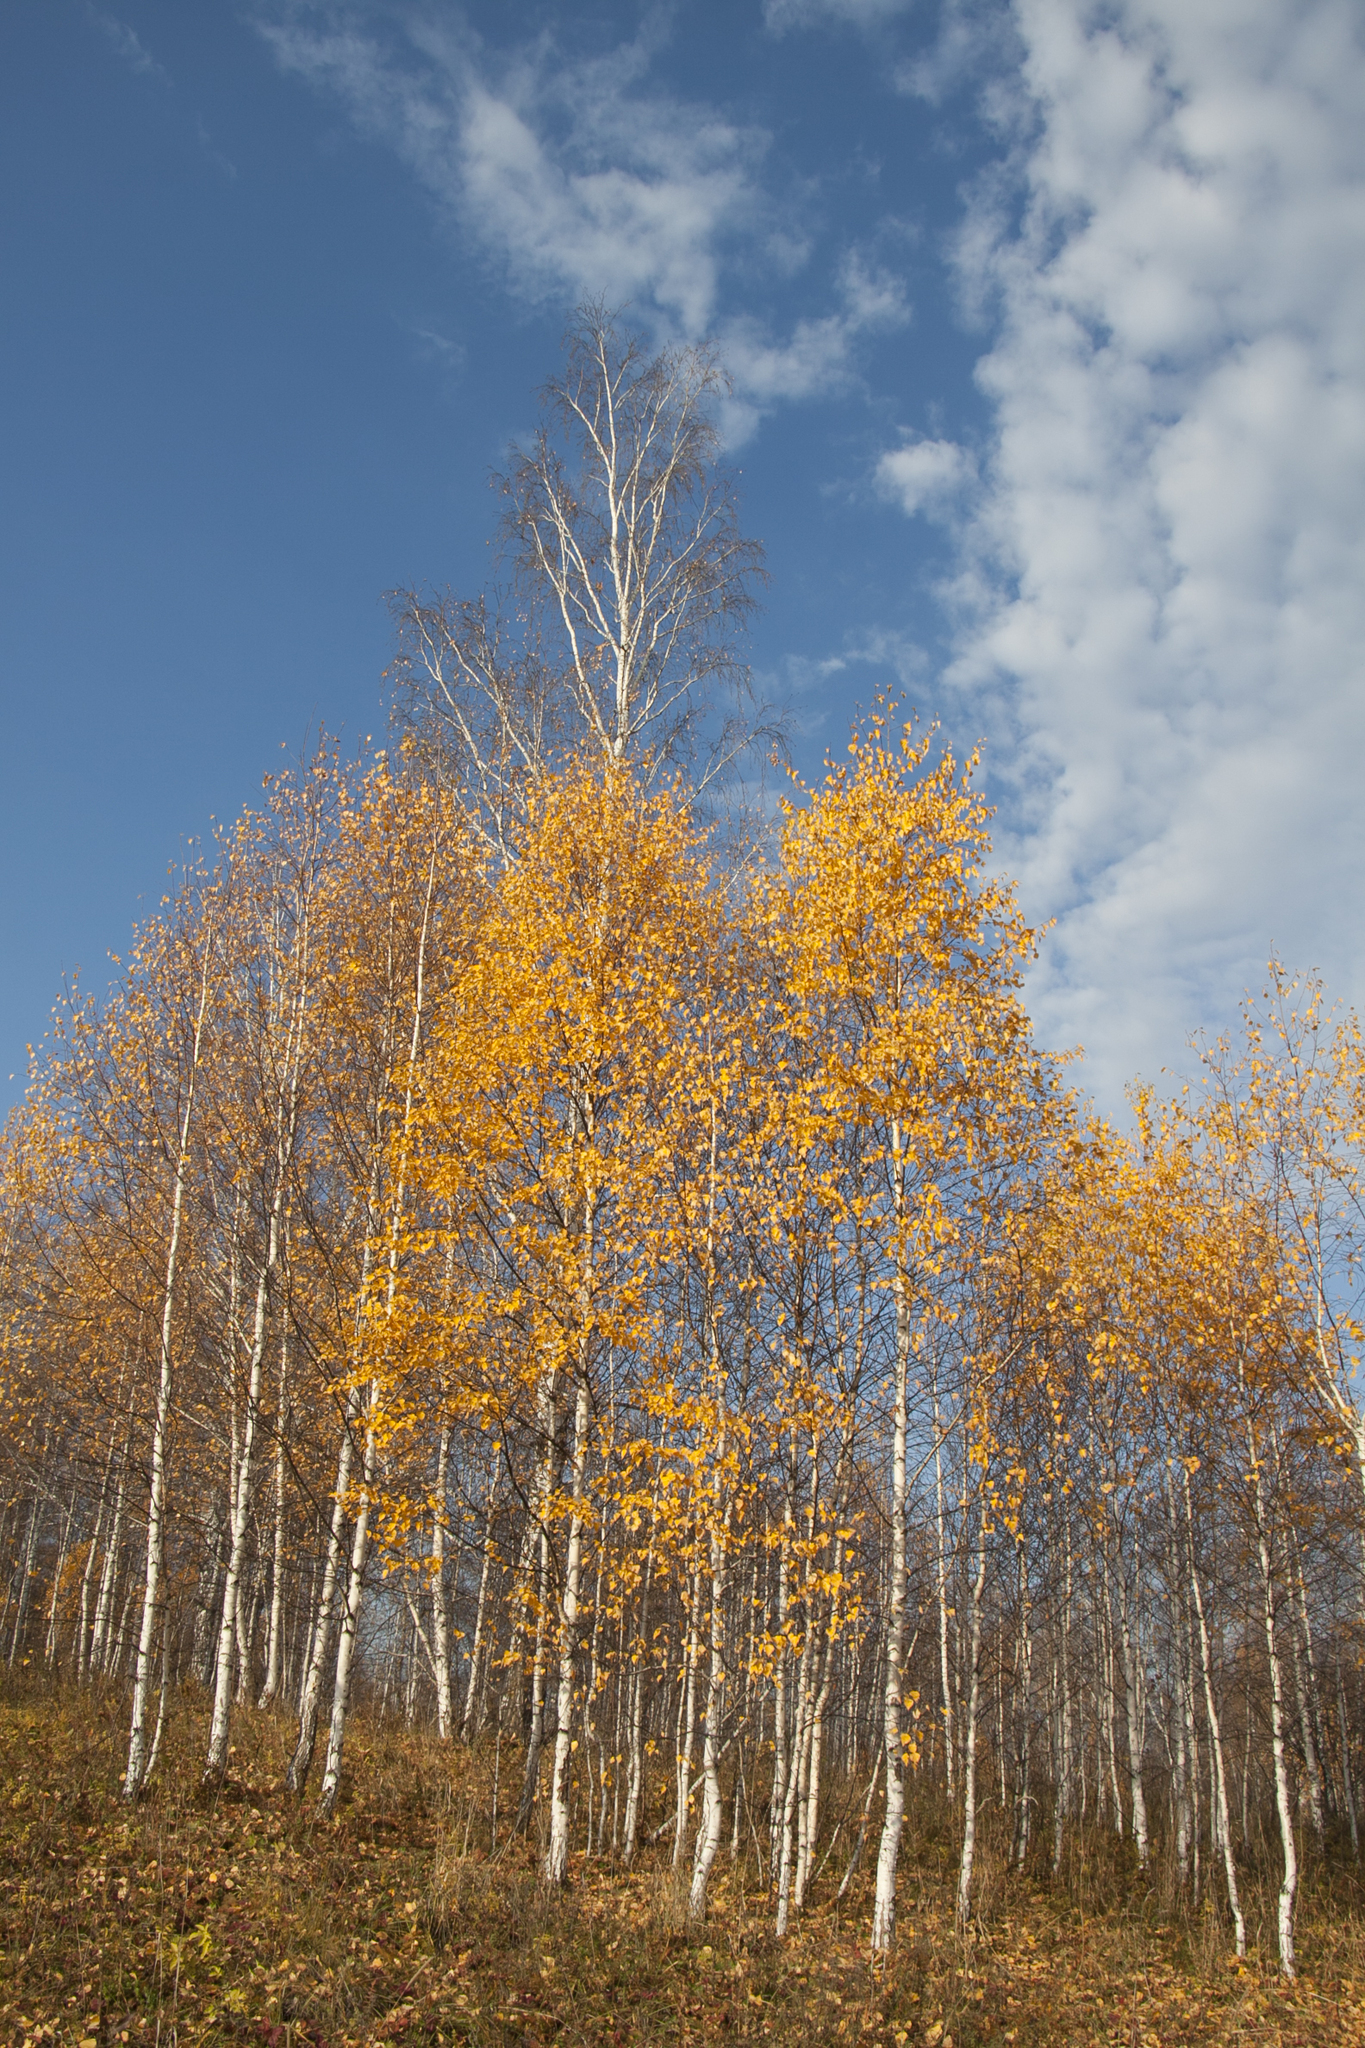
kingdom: Plantae
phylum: Tracheophyta
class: Magnoliopsida
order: Fagales
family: Betulaceae
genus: Betula
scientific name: Betula pendula
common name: Silver birch
